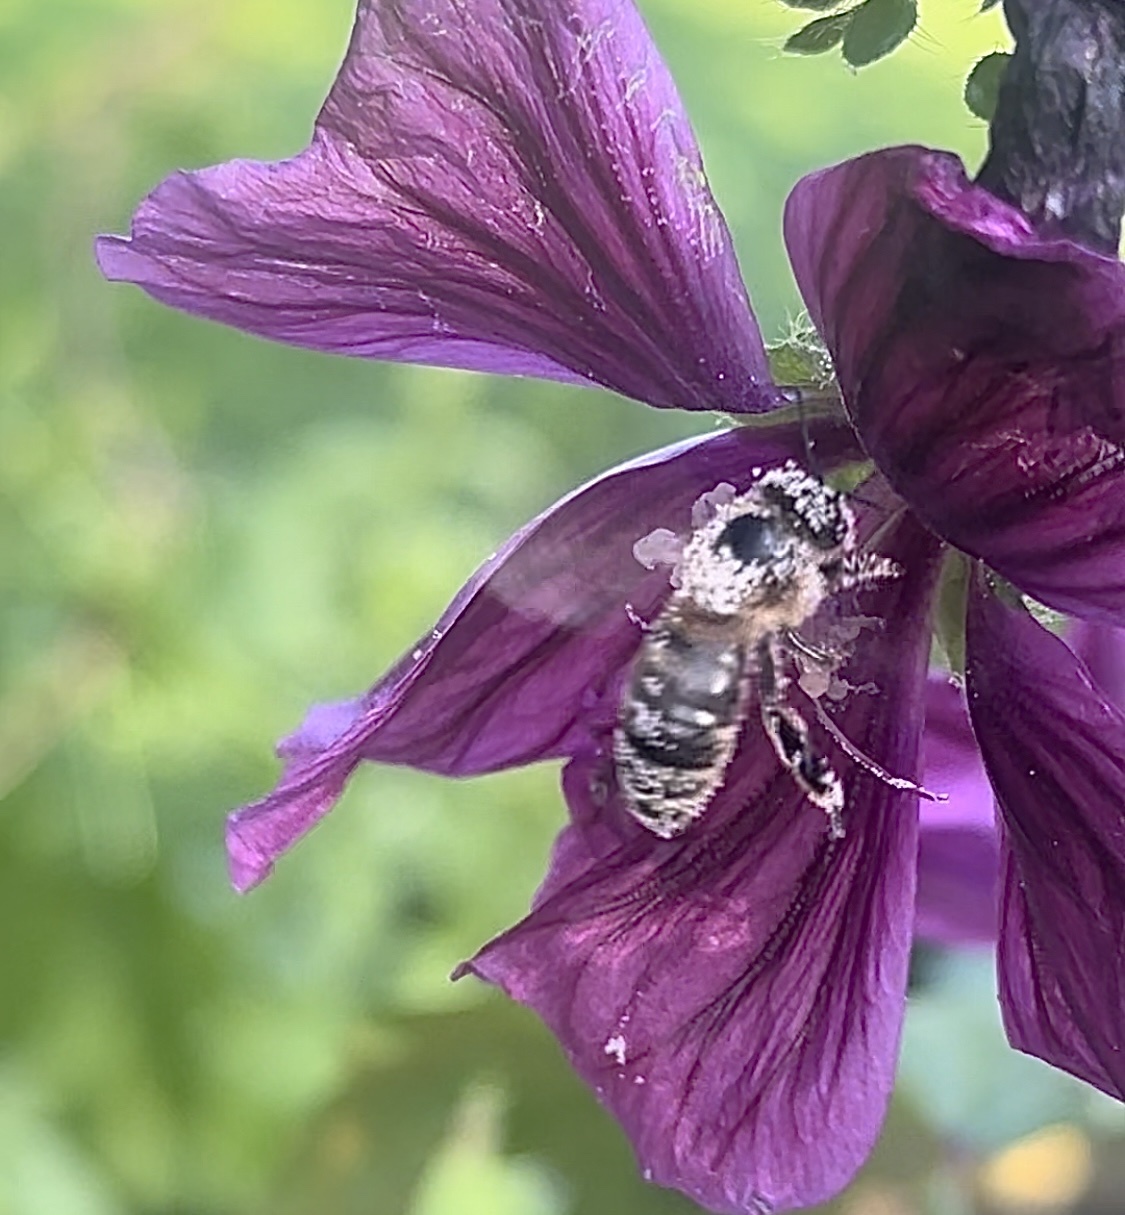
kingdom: Animalia
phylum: Arthropoda
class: Insecta
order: Hymenoptera
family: Apidae
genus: Apis
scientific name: Apis mellifera
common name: Honey bee
